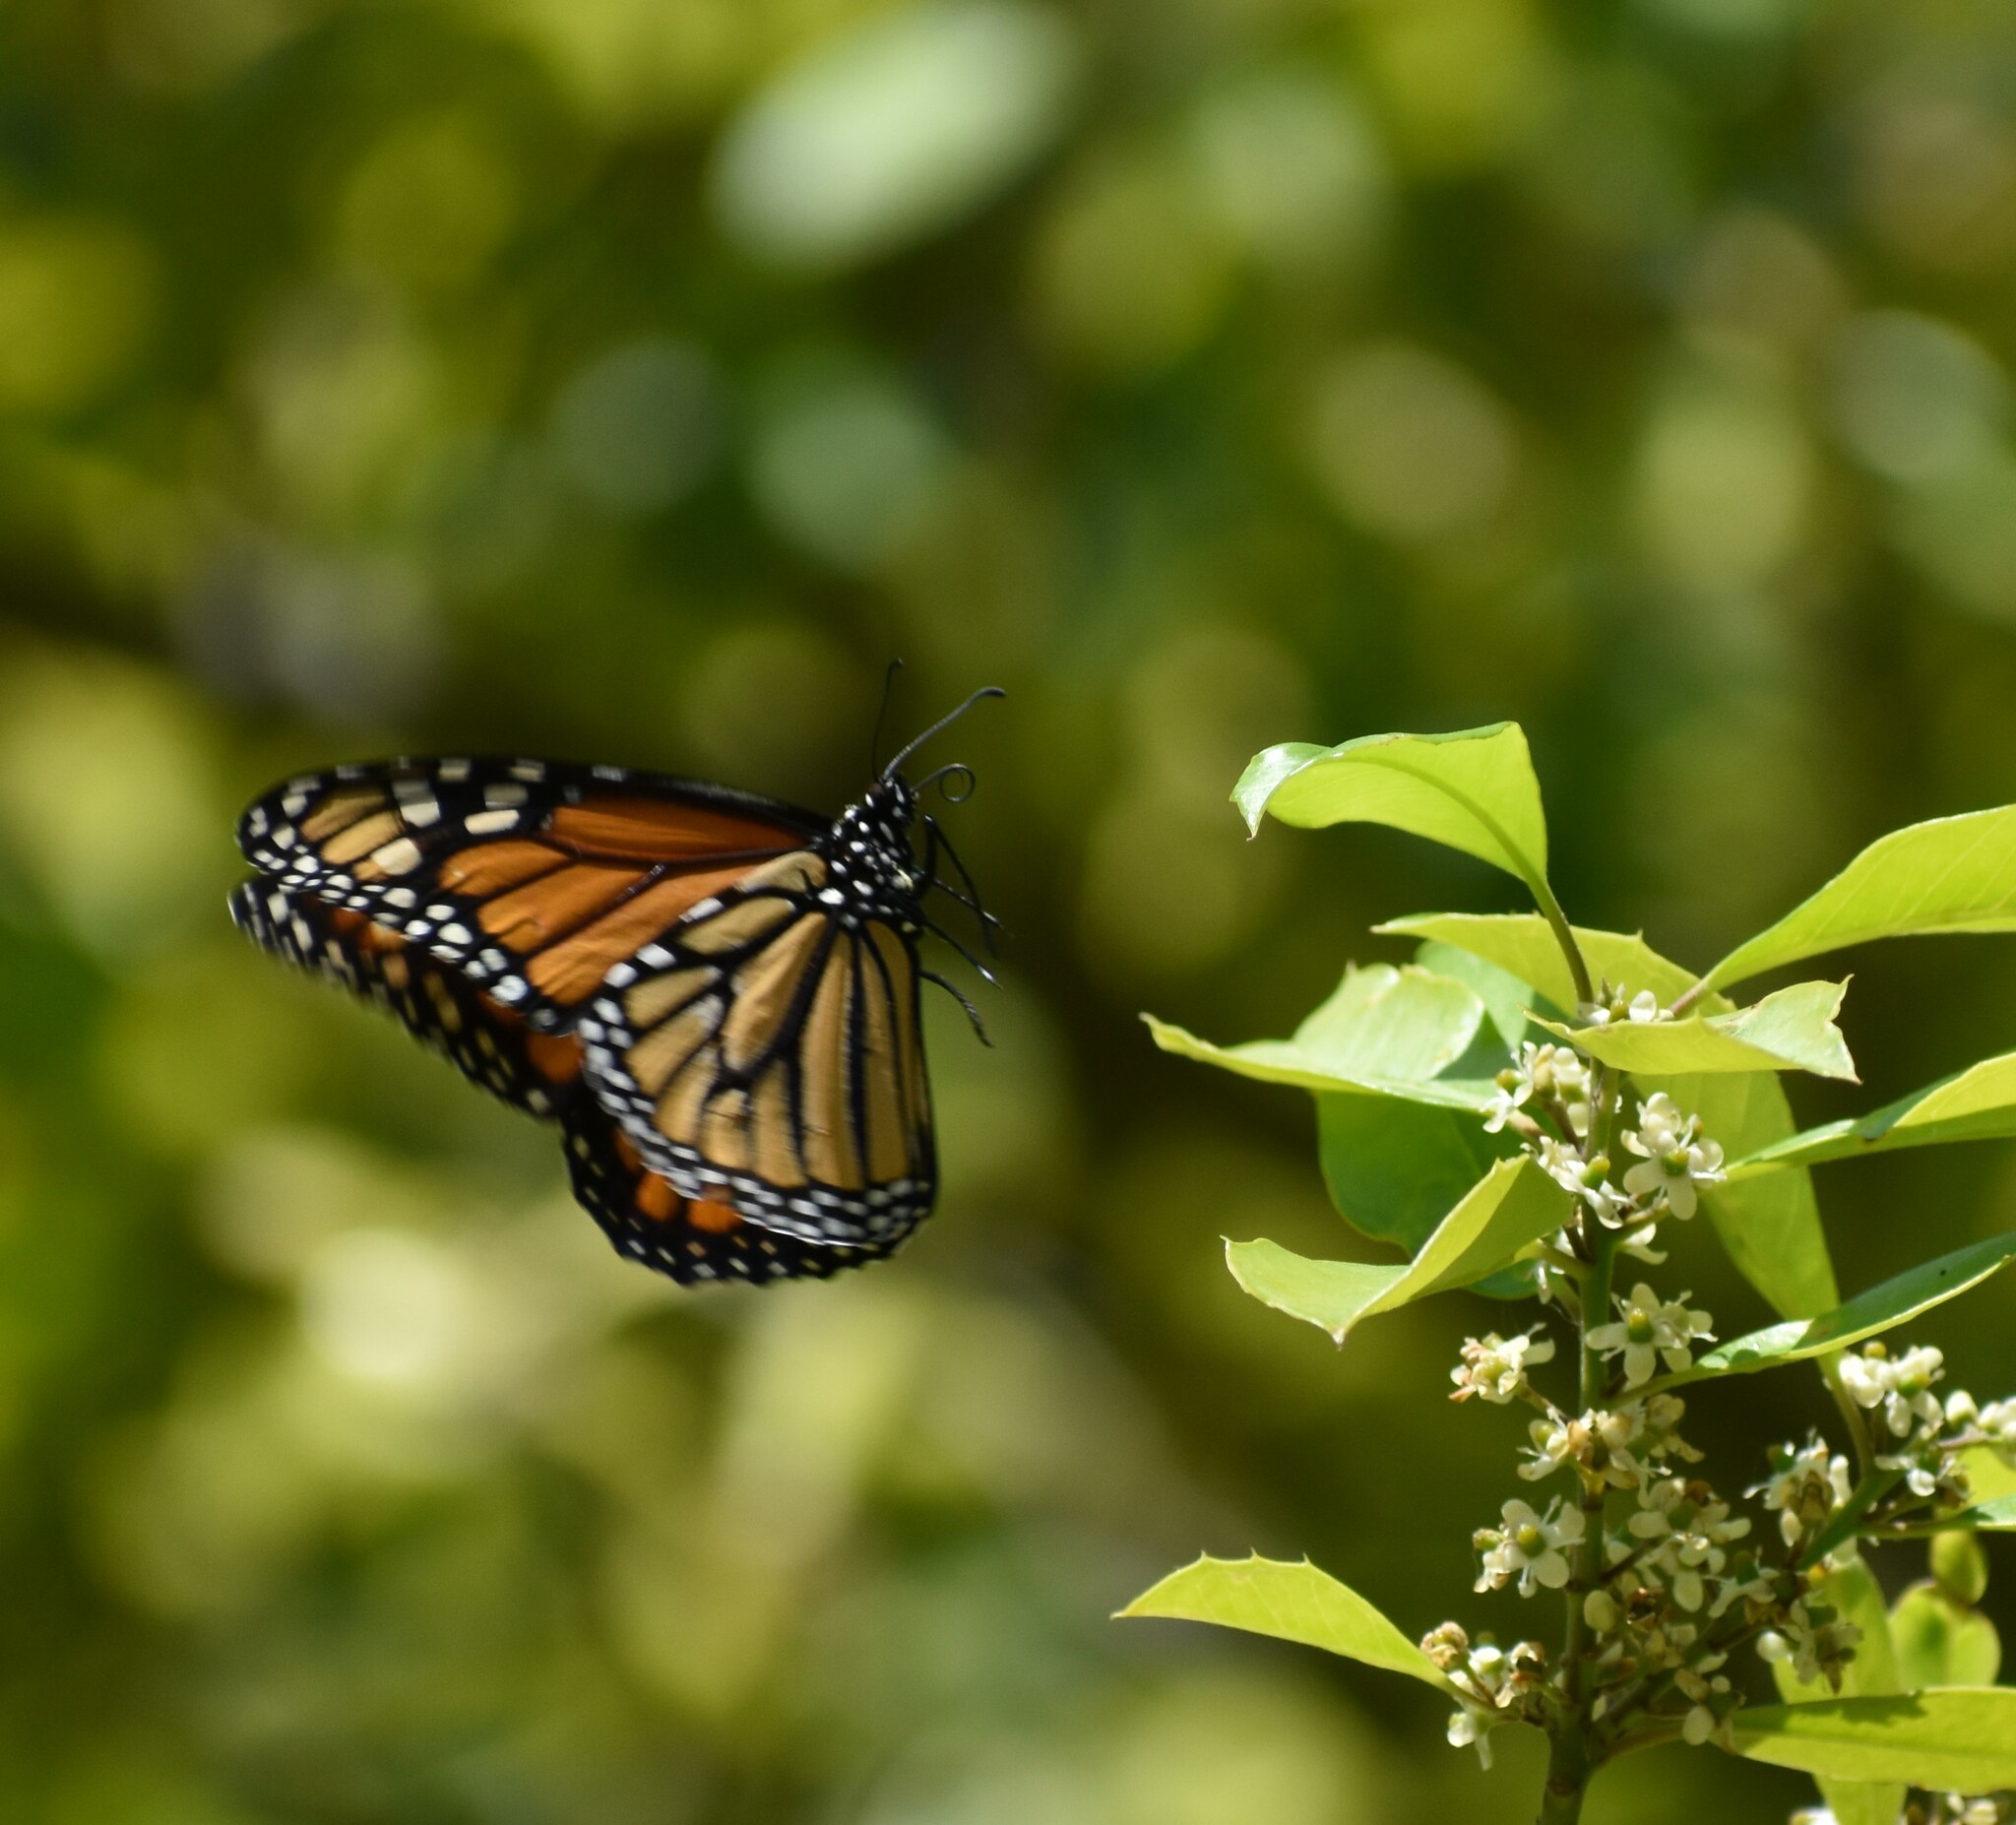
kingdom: Animalia
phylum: Arthropoda
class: Insecta
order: Lepidoptera
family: Nymphalidae
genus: Danaus
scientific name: Danaus plexippus
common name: Monarch
